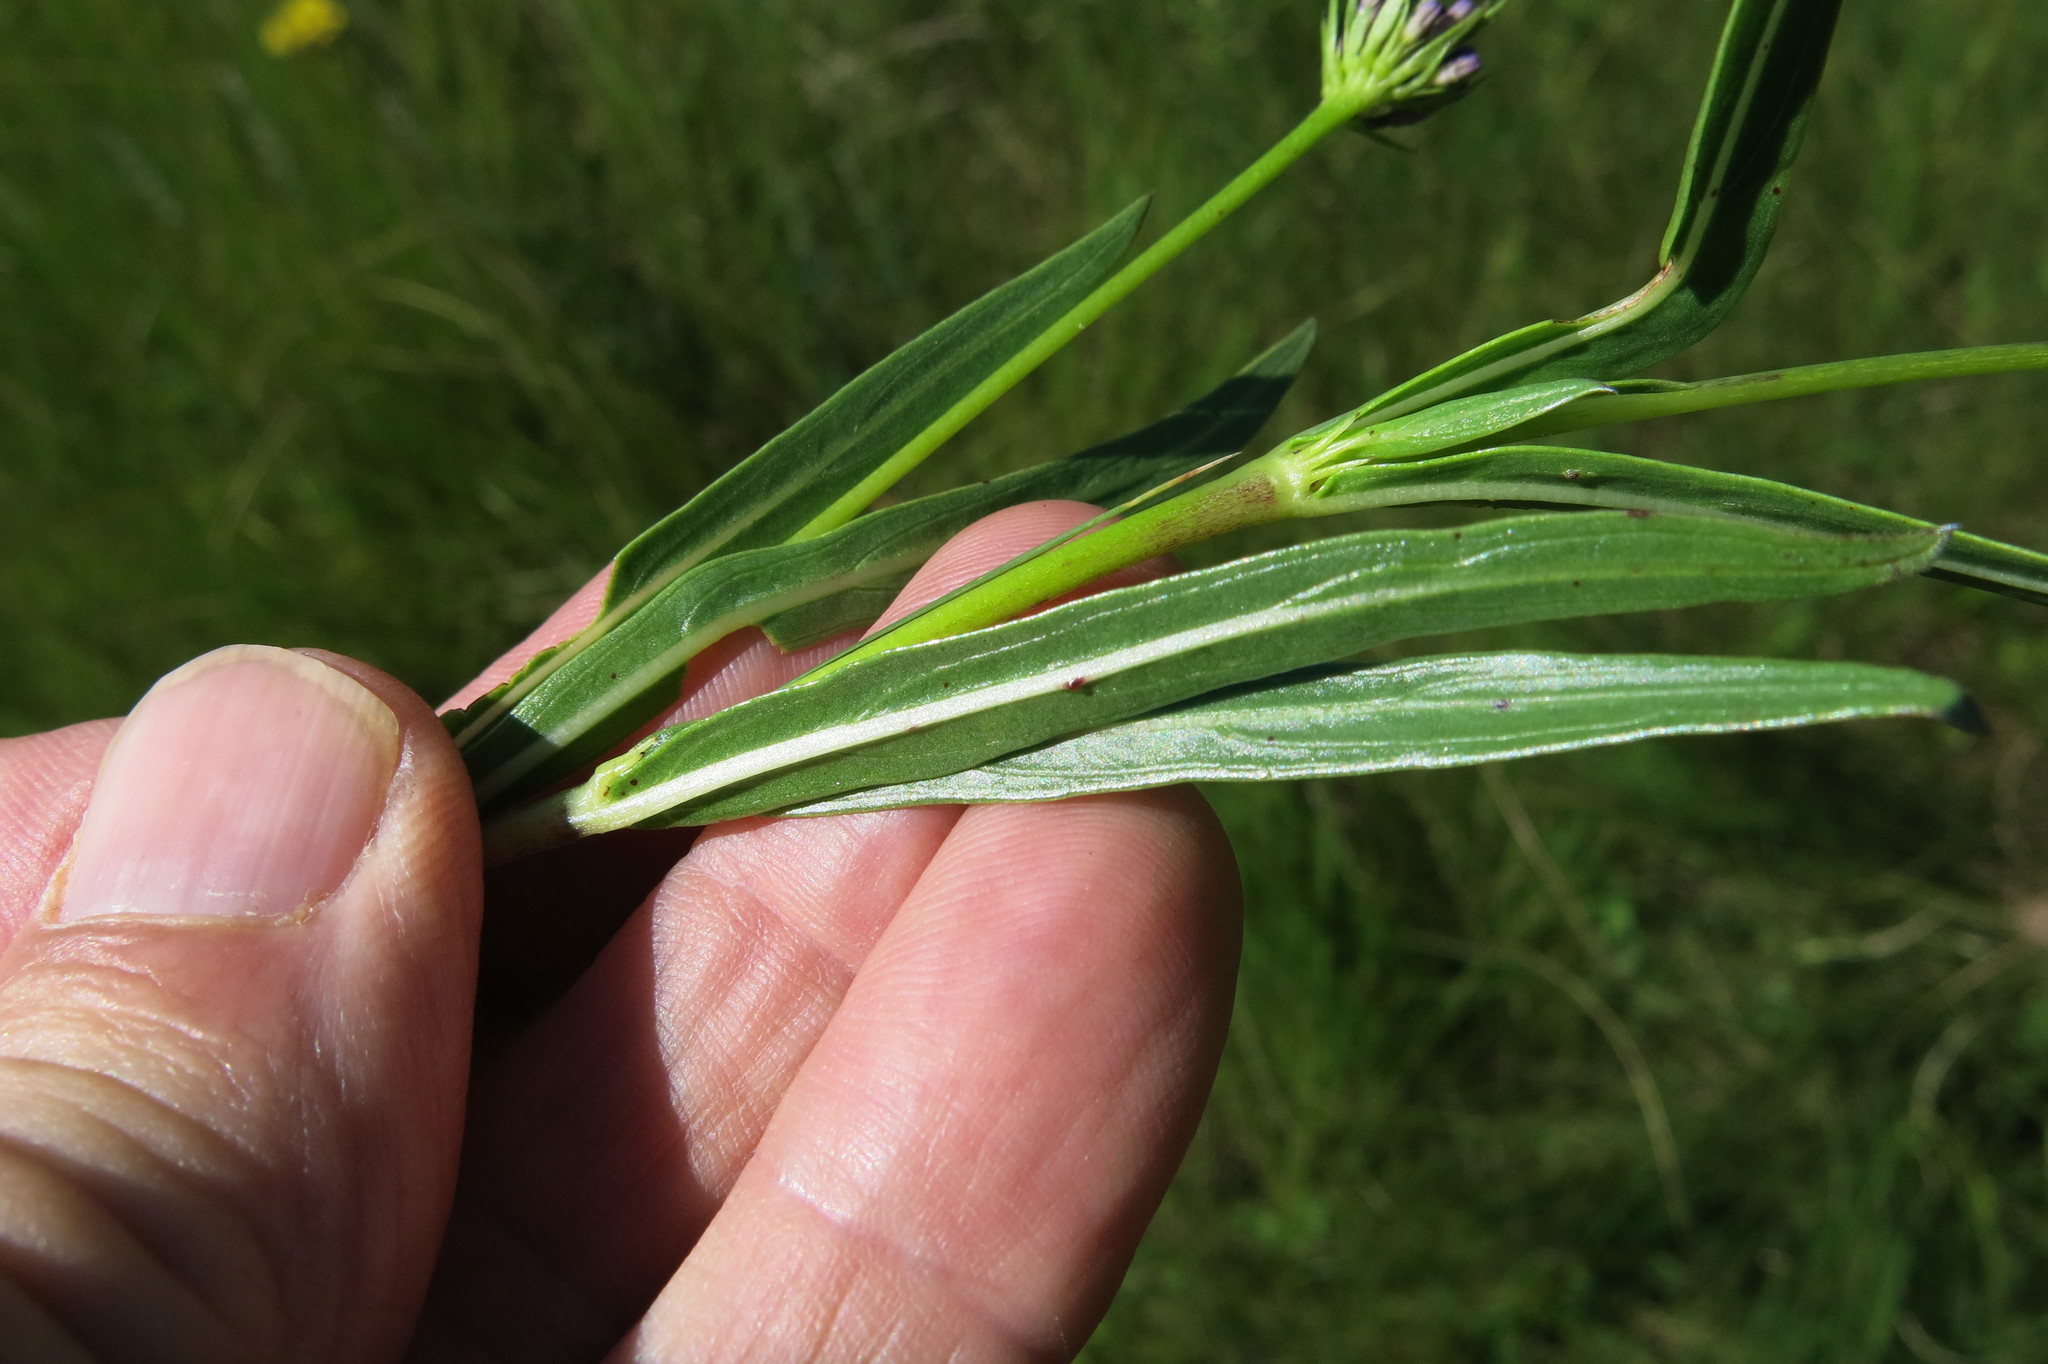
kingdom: Plantae
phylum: Tracheophyta
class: Magnoliopsida
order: Gentianales
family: Rubiaceae
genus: Pentanisia
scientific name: Pentanisia angustifolia
